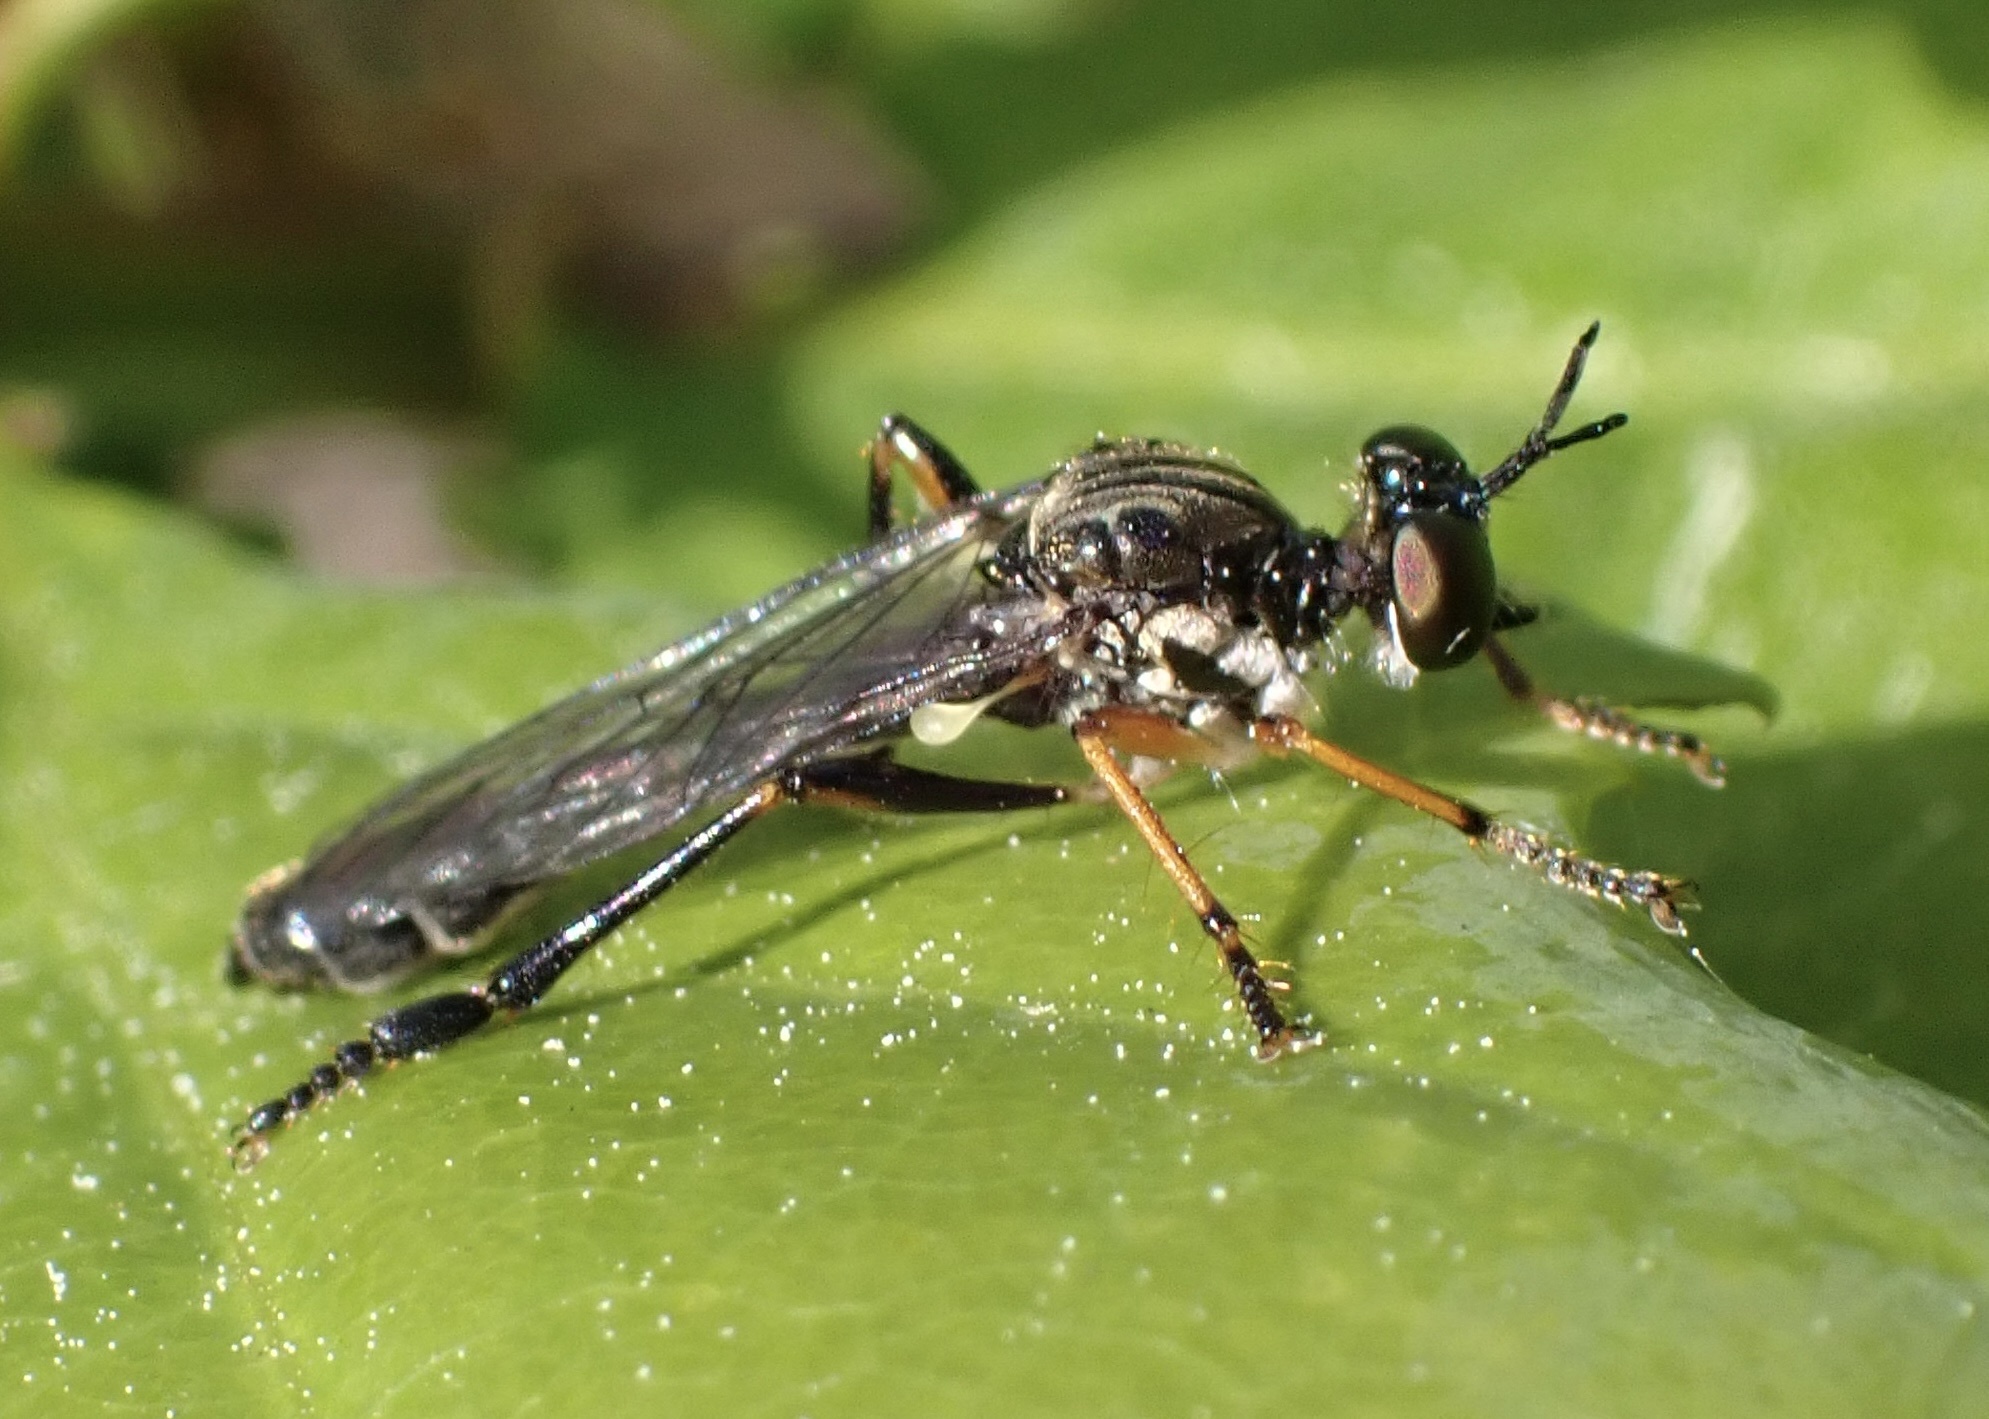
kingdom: Animalia
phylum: Arthropoda
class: Insecta
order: Diptera
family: Asilidae
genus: Dioctria
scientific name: Dioctria hyalipennis
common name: Stripe-legged robberfly
